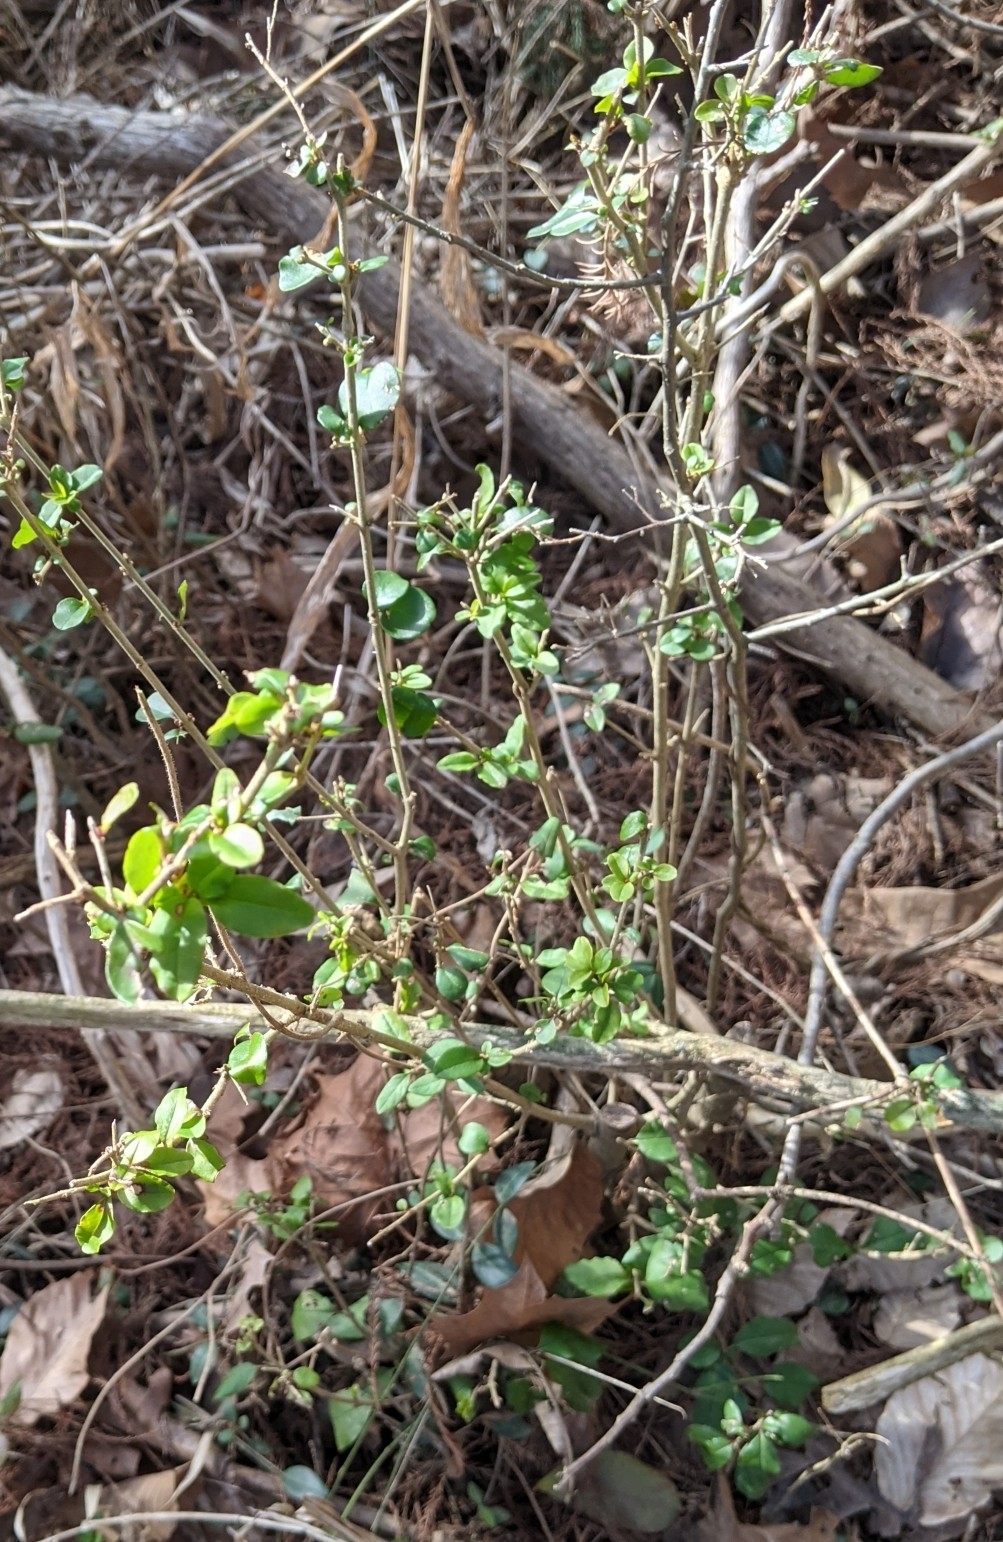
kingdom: Plantae
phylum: Tracheophyta
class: Magnoliopsida
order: Lamiales
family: Oleaceae
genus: Ligustrum
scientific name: Ligustrum sinense
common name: Chinese privet
